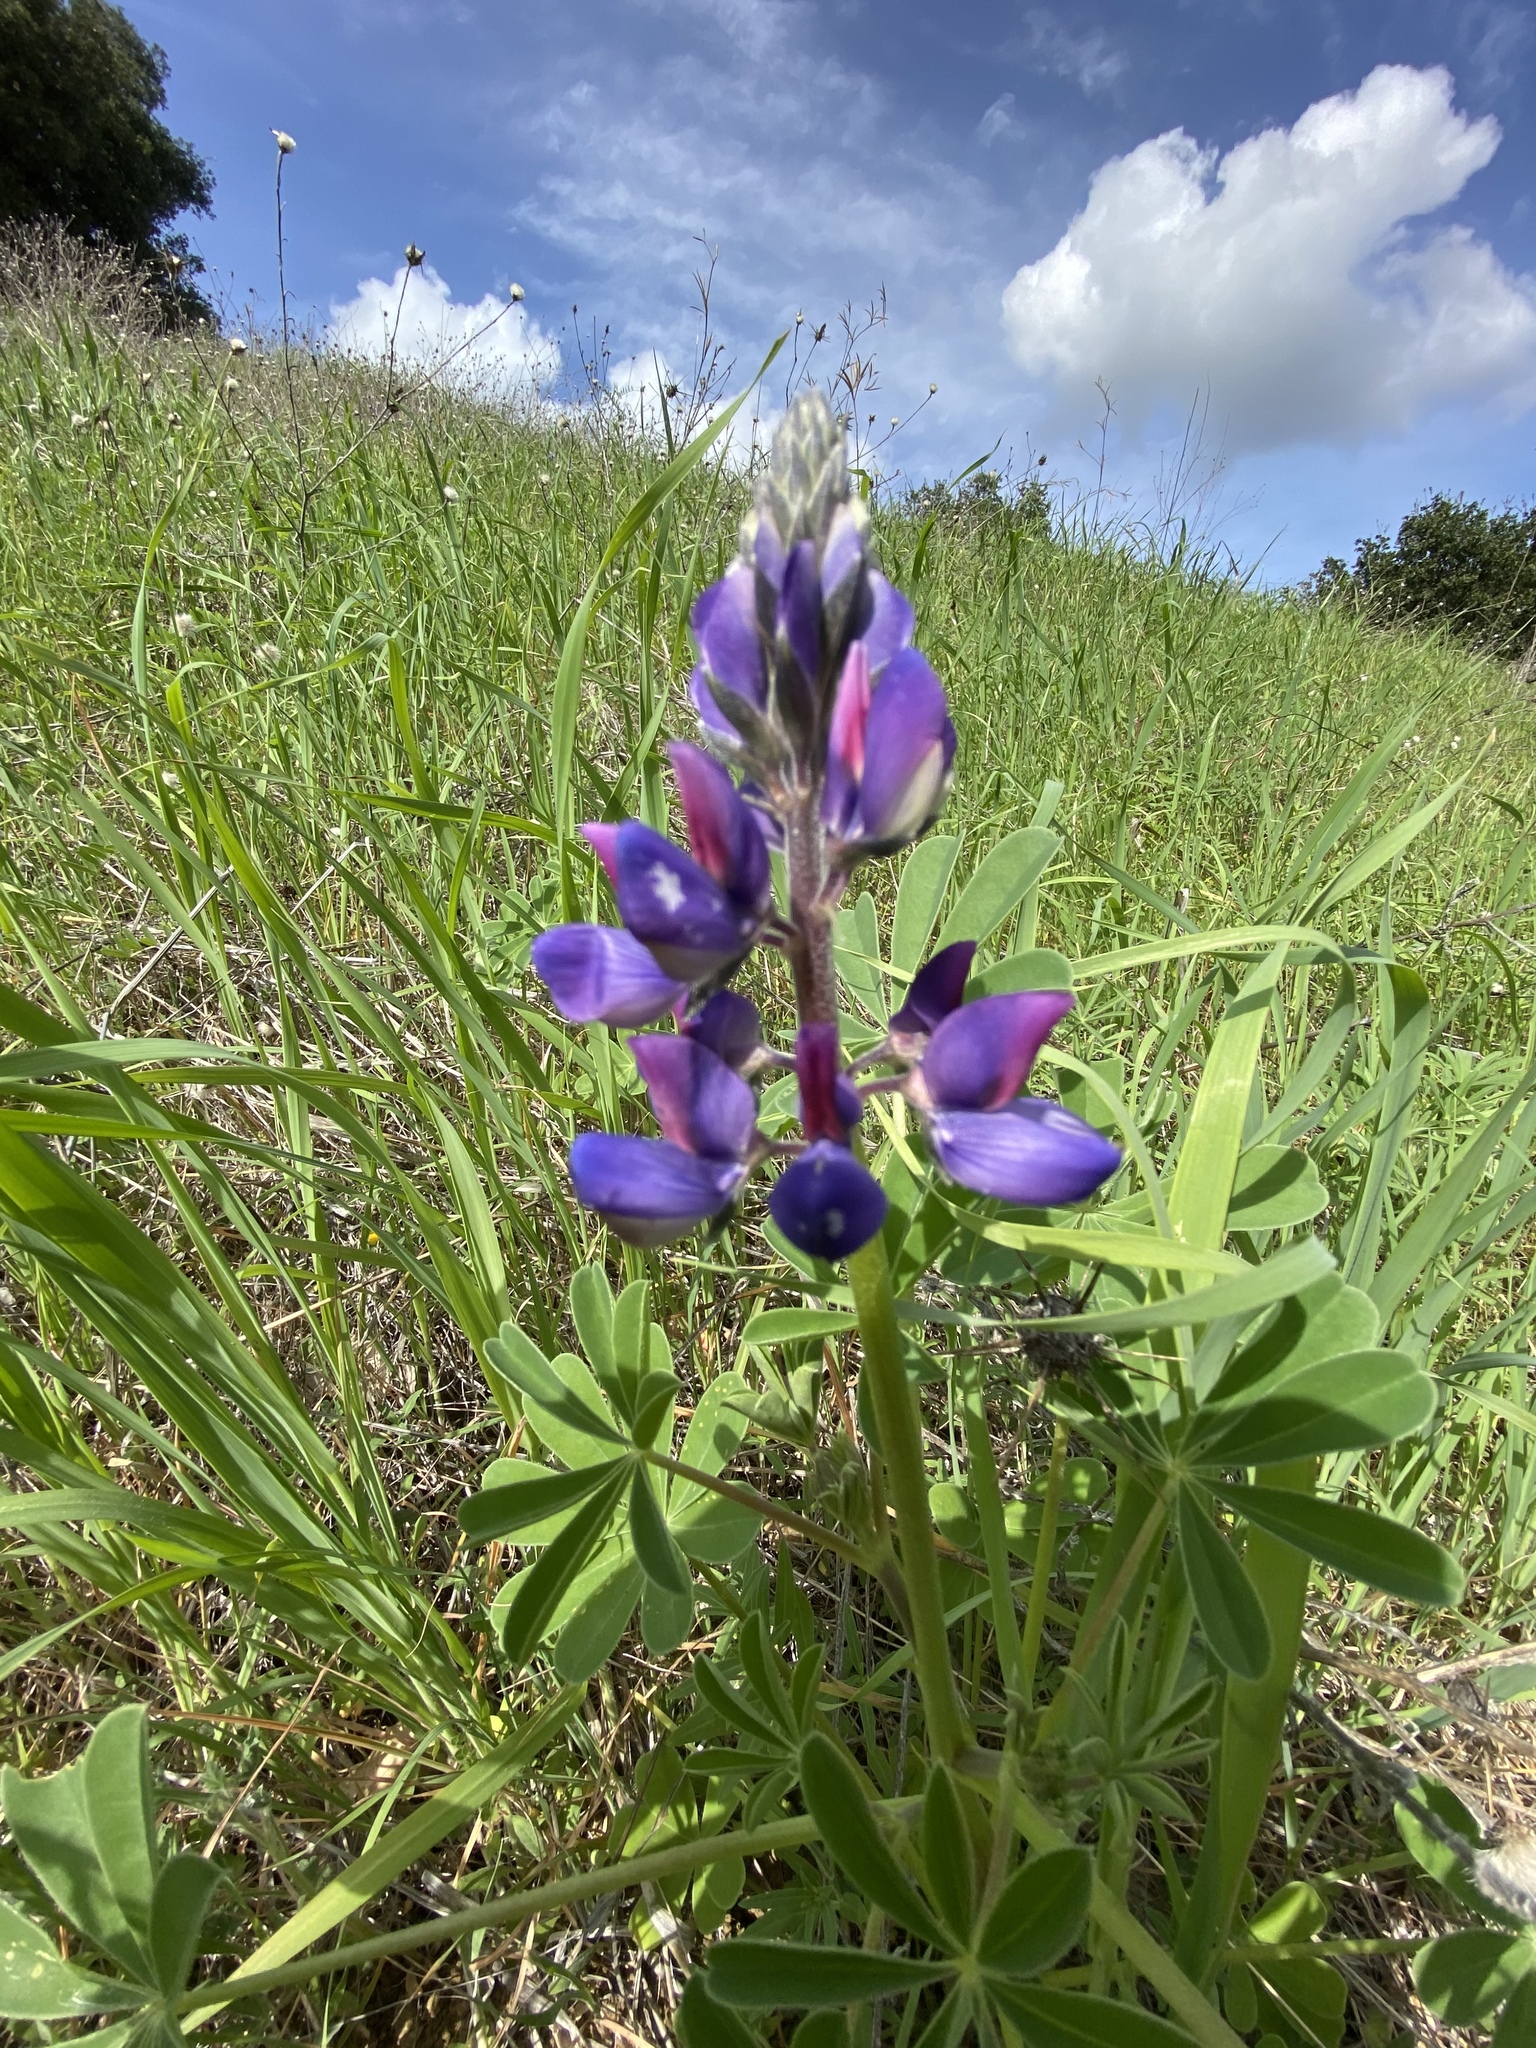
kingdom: Plantae
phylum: Tracheophyta
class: Magnoliopsida
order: Fabales
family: Fabaceae
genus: Lupinus
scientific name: Lupinus succulentus
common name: Arroyo lupine
